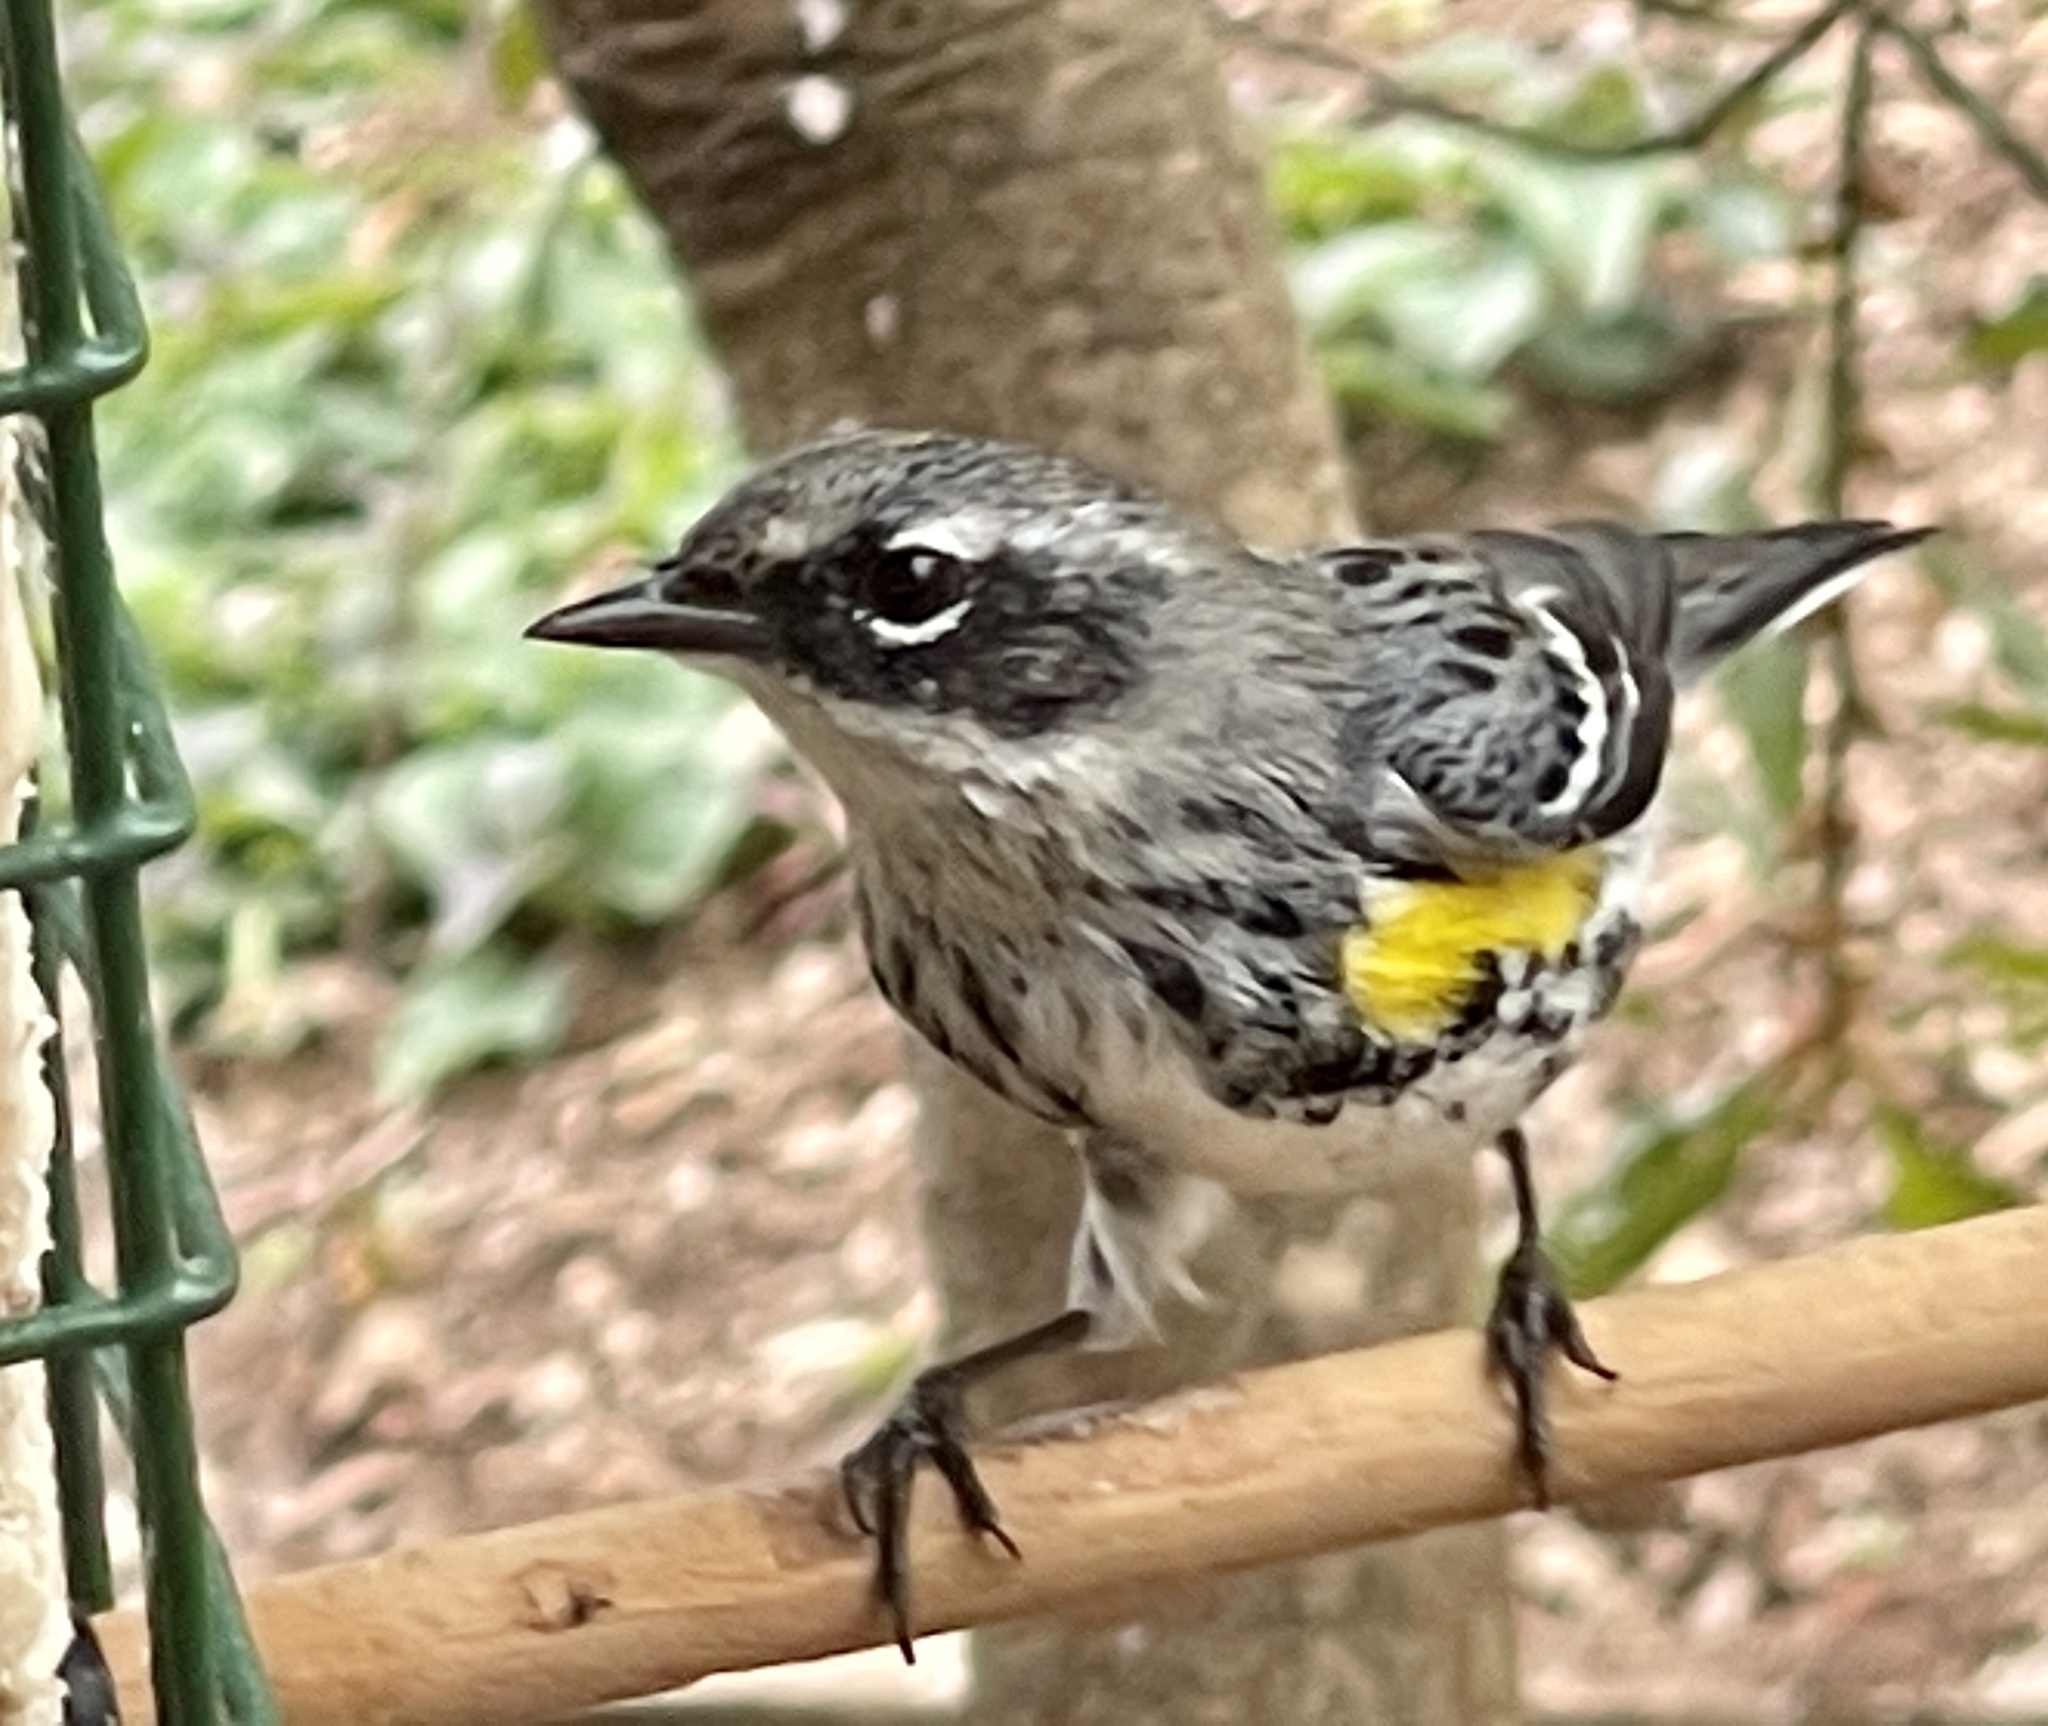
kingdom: Animalia
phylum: Chordata
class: Aves
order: Passeriformes
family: Parulidae
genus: Setophaga
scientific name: Setophaga coronata
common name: Myrtle warbler
